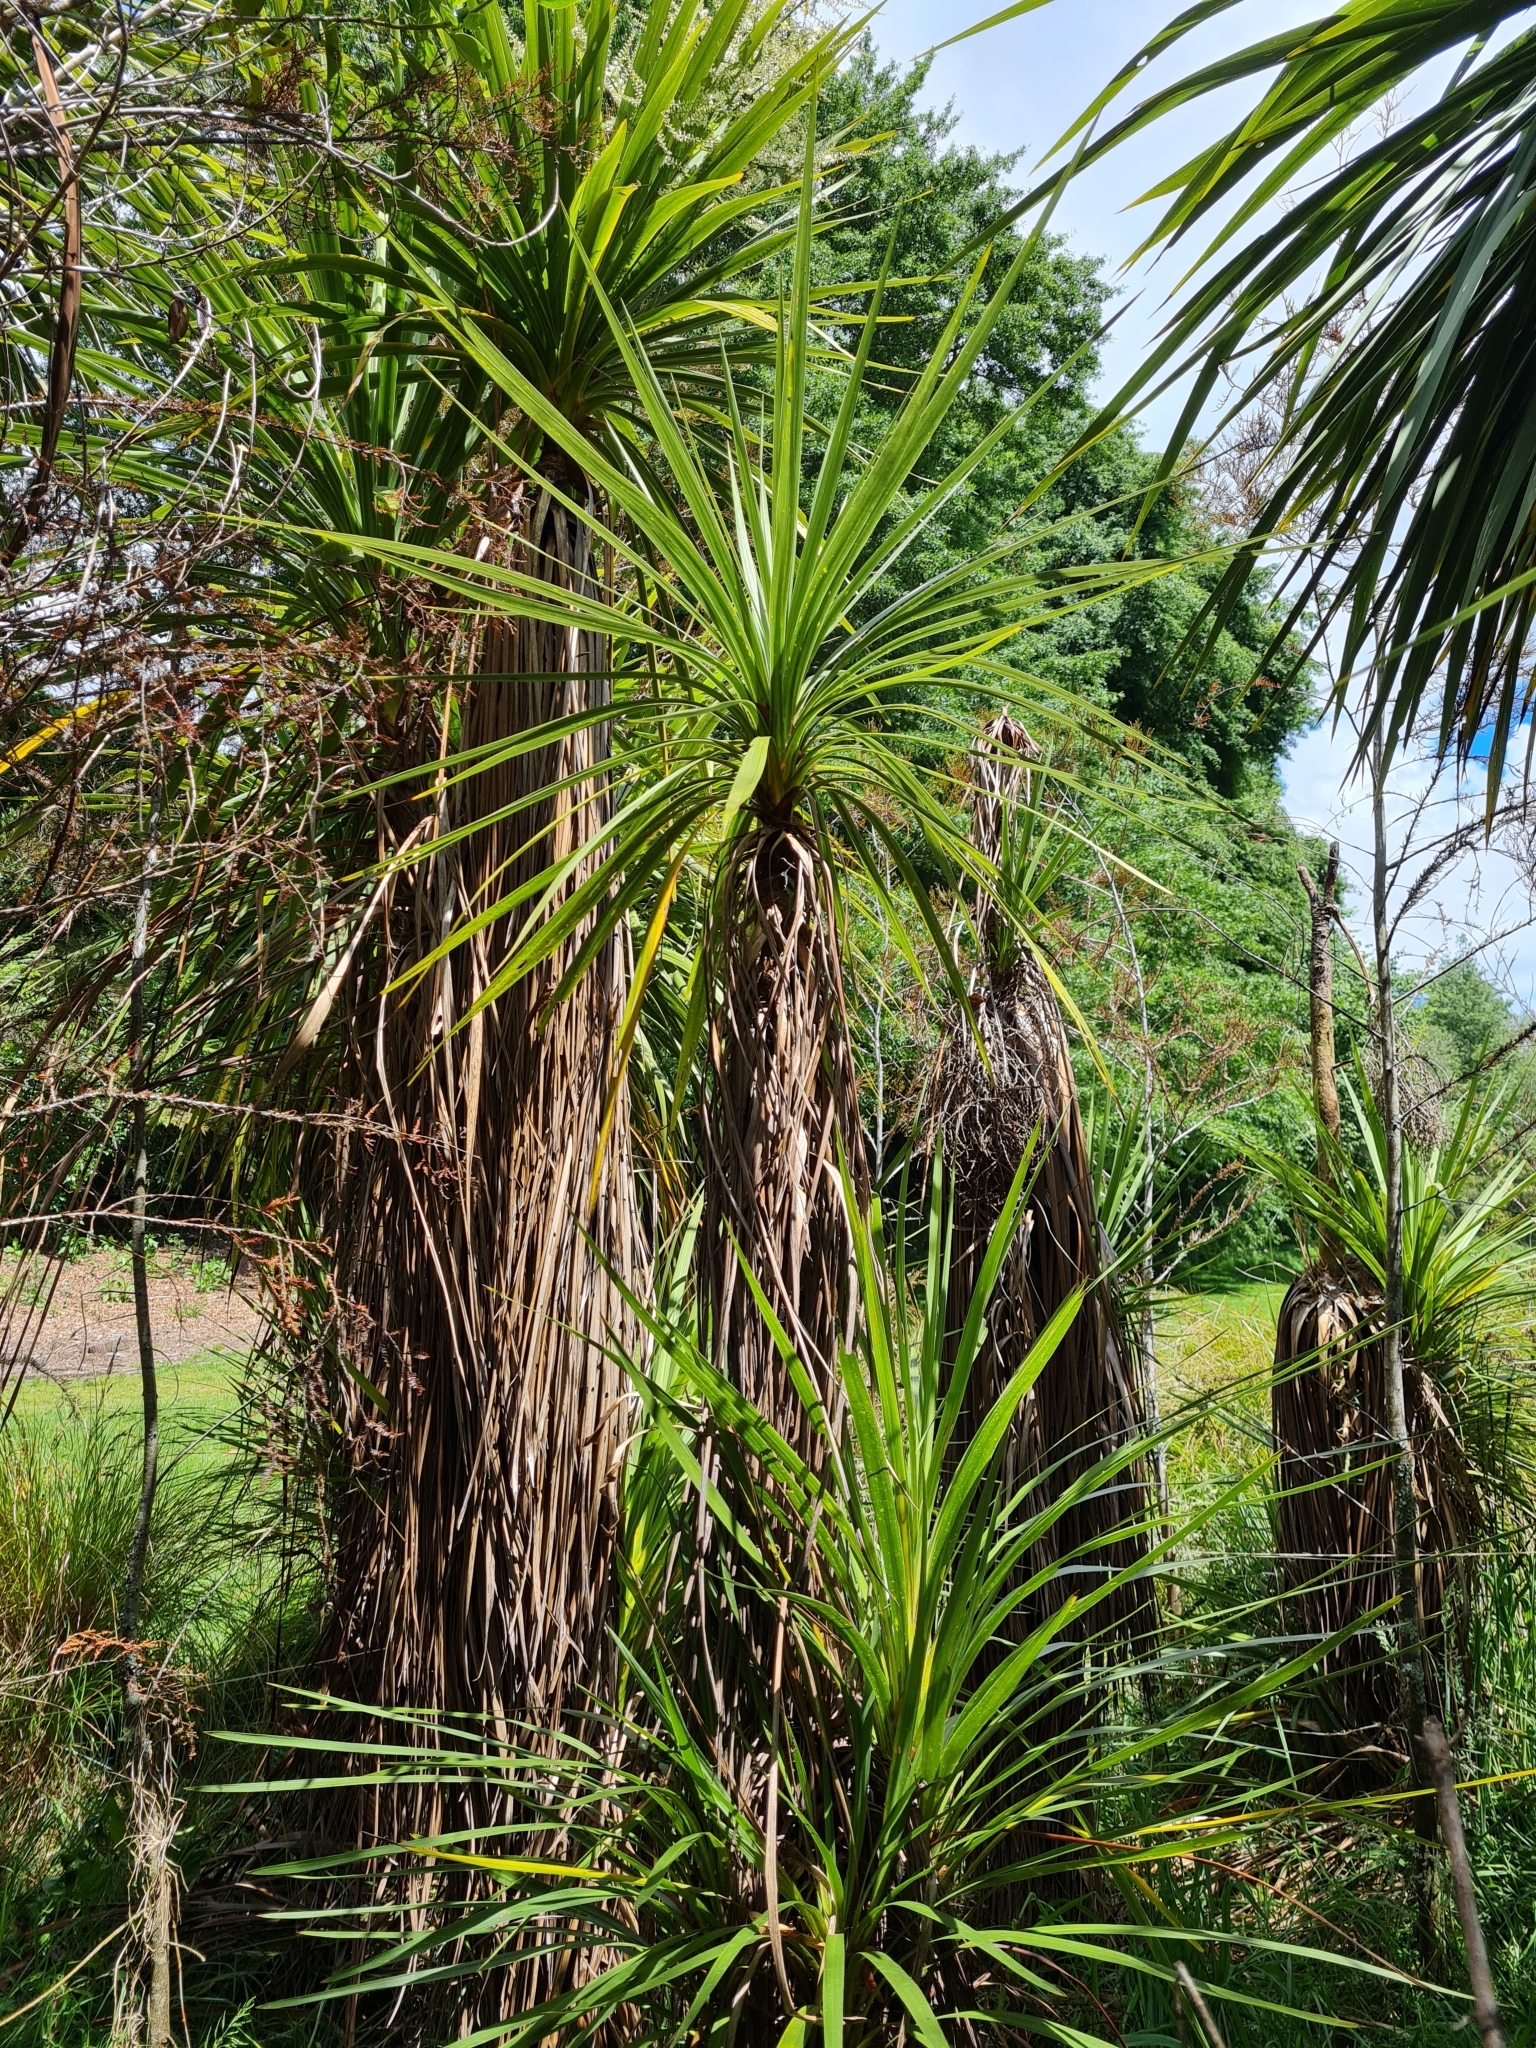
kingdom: Plantae
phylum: Tracheophyta
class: Liliopsida
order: Asparagales
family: Asparagaceae
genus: Cordyline
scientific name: Cordyline australis
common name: Cabbage-palm
